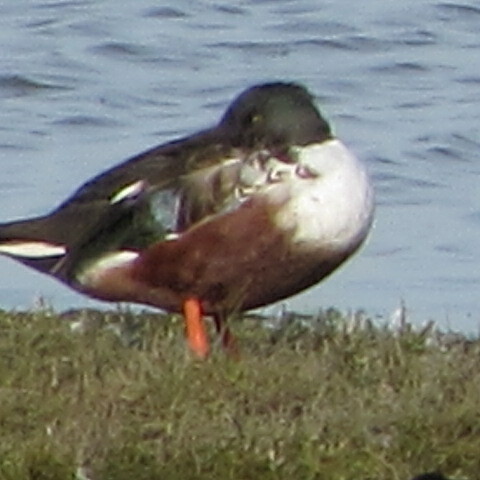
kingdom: Animalia
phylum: Chordata
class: Aves
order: Anseriformes
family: Anatidae
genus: Spatula
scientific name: Spatula clypeata
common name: Northern shoveler
